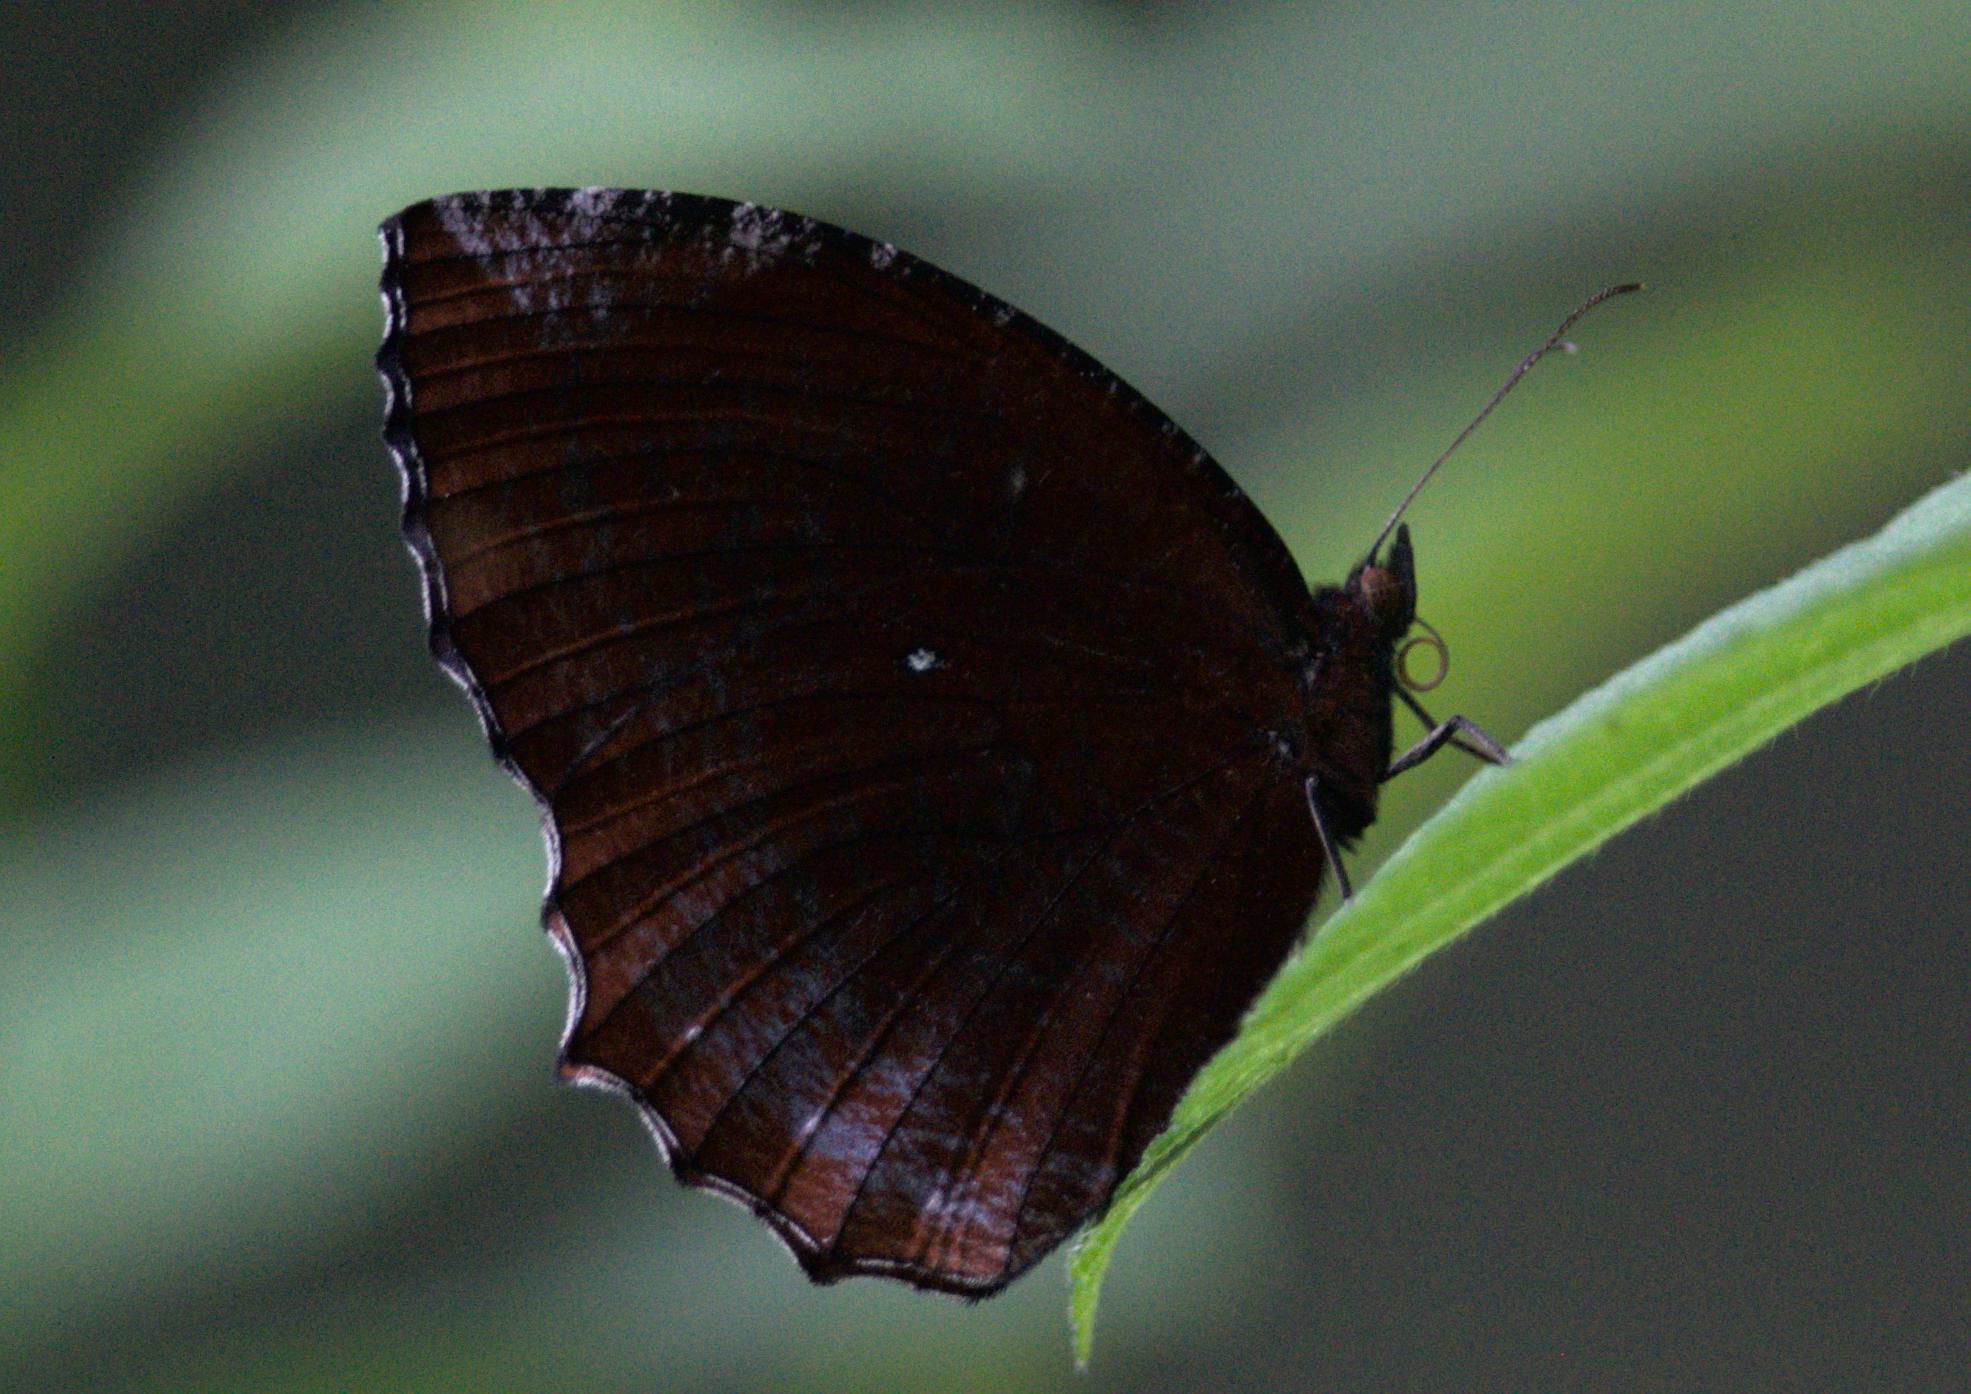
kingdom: Animalia
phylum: Arthropoda
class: Insecta
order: Lepidoptera
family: Nymphalidae
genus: Elymnias
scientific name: Elymnias hypermnestra
